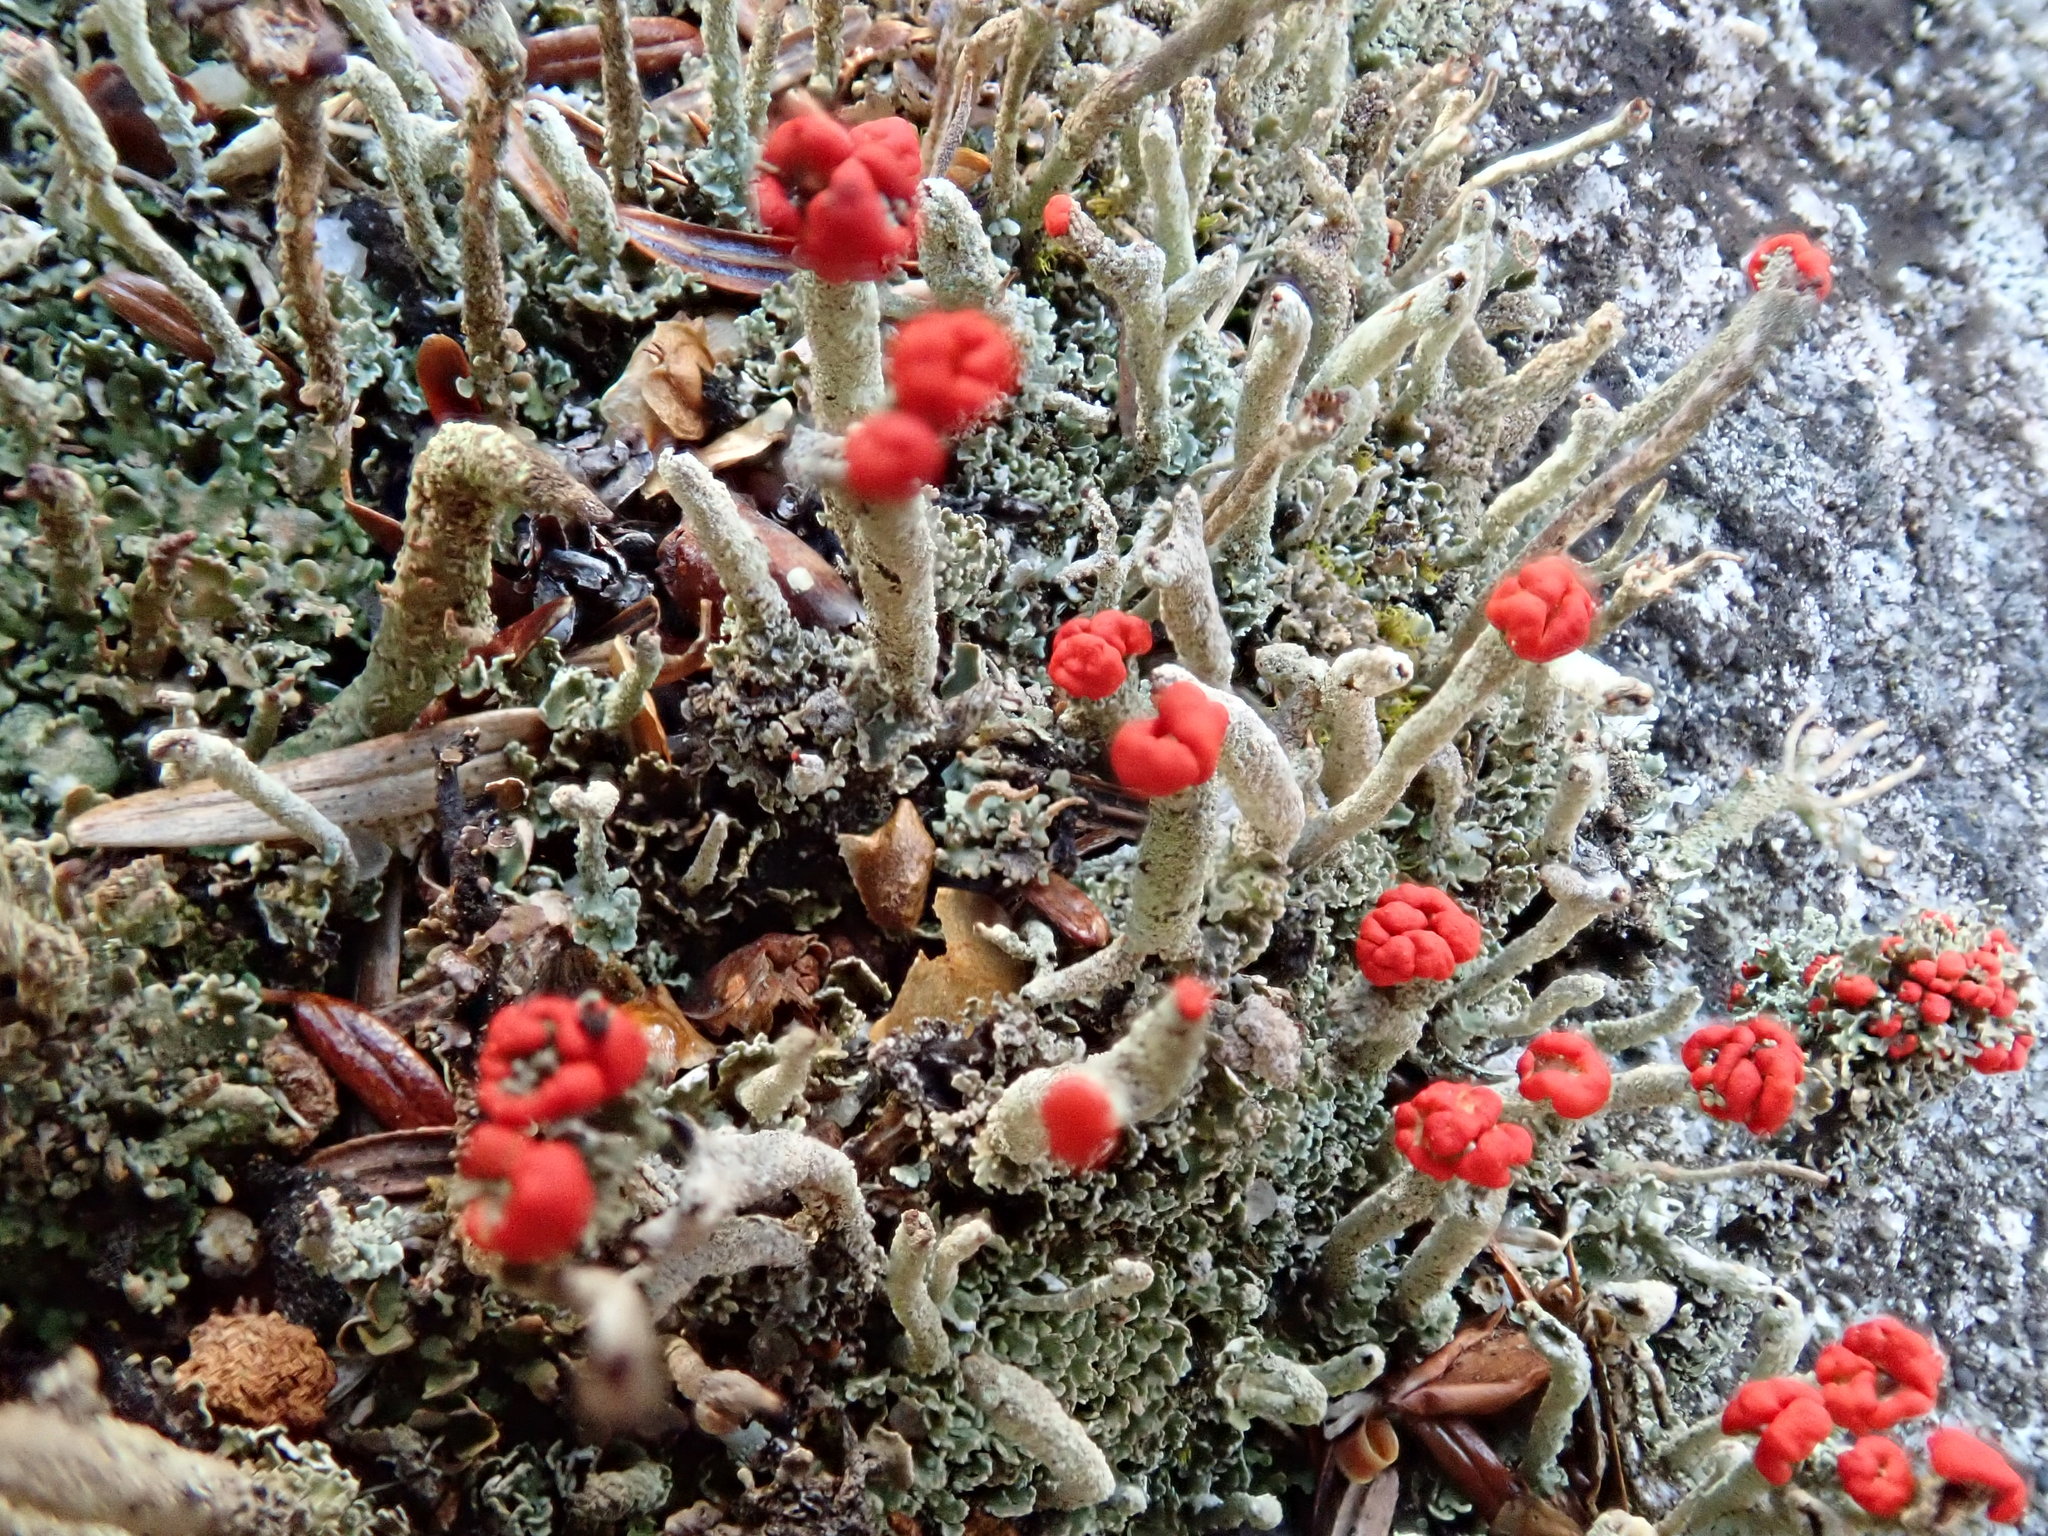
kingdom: Fungi
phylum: Ascomycota
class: Lecanoromycetes
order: Lecanorales
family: Cladoniaceae
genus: Cladonia
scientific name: Cladonia cristatella
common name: British soldier lichen
